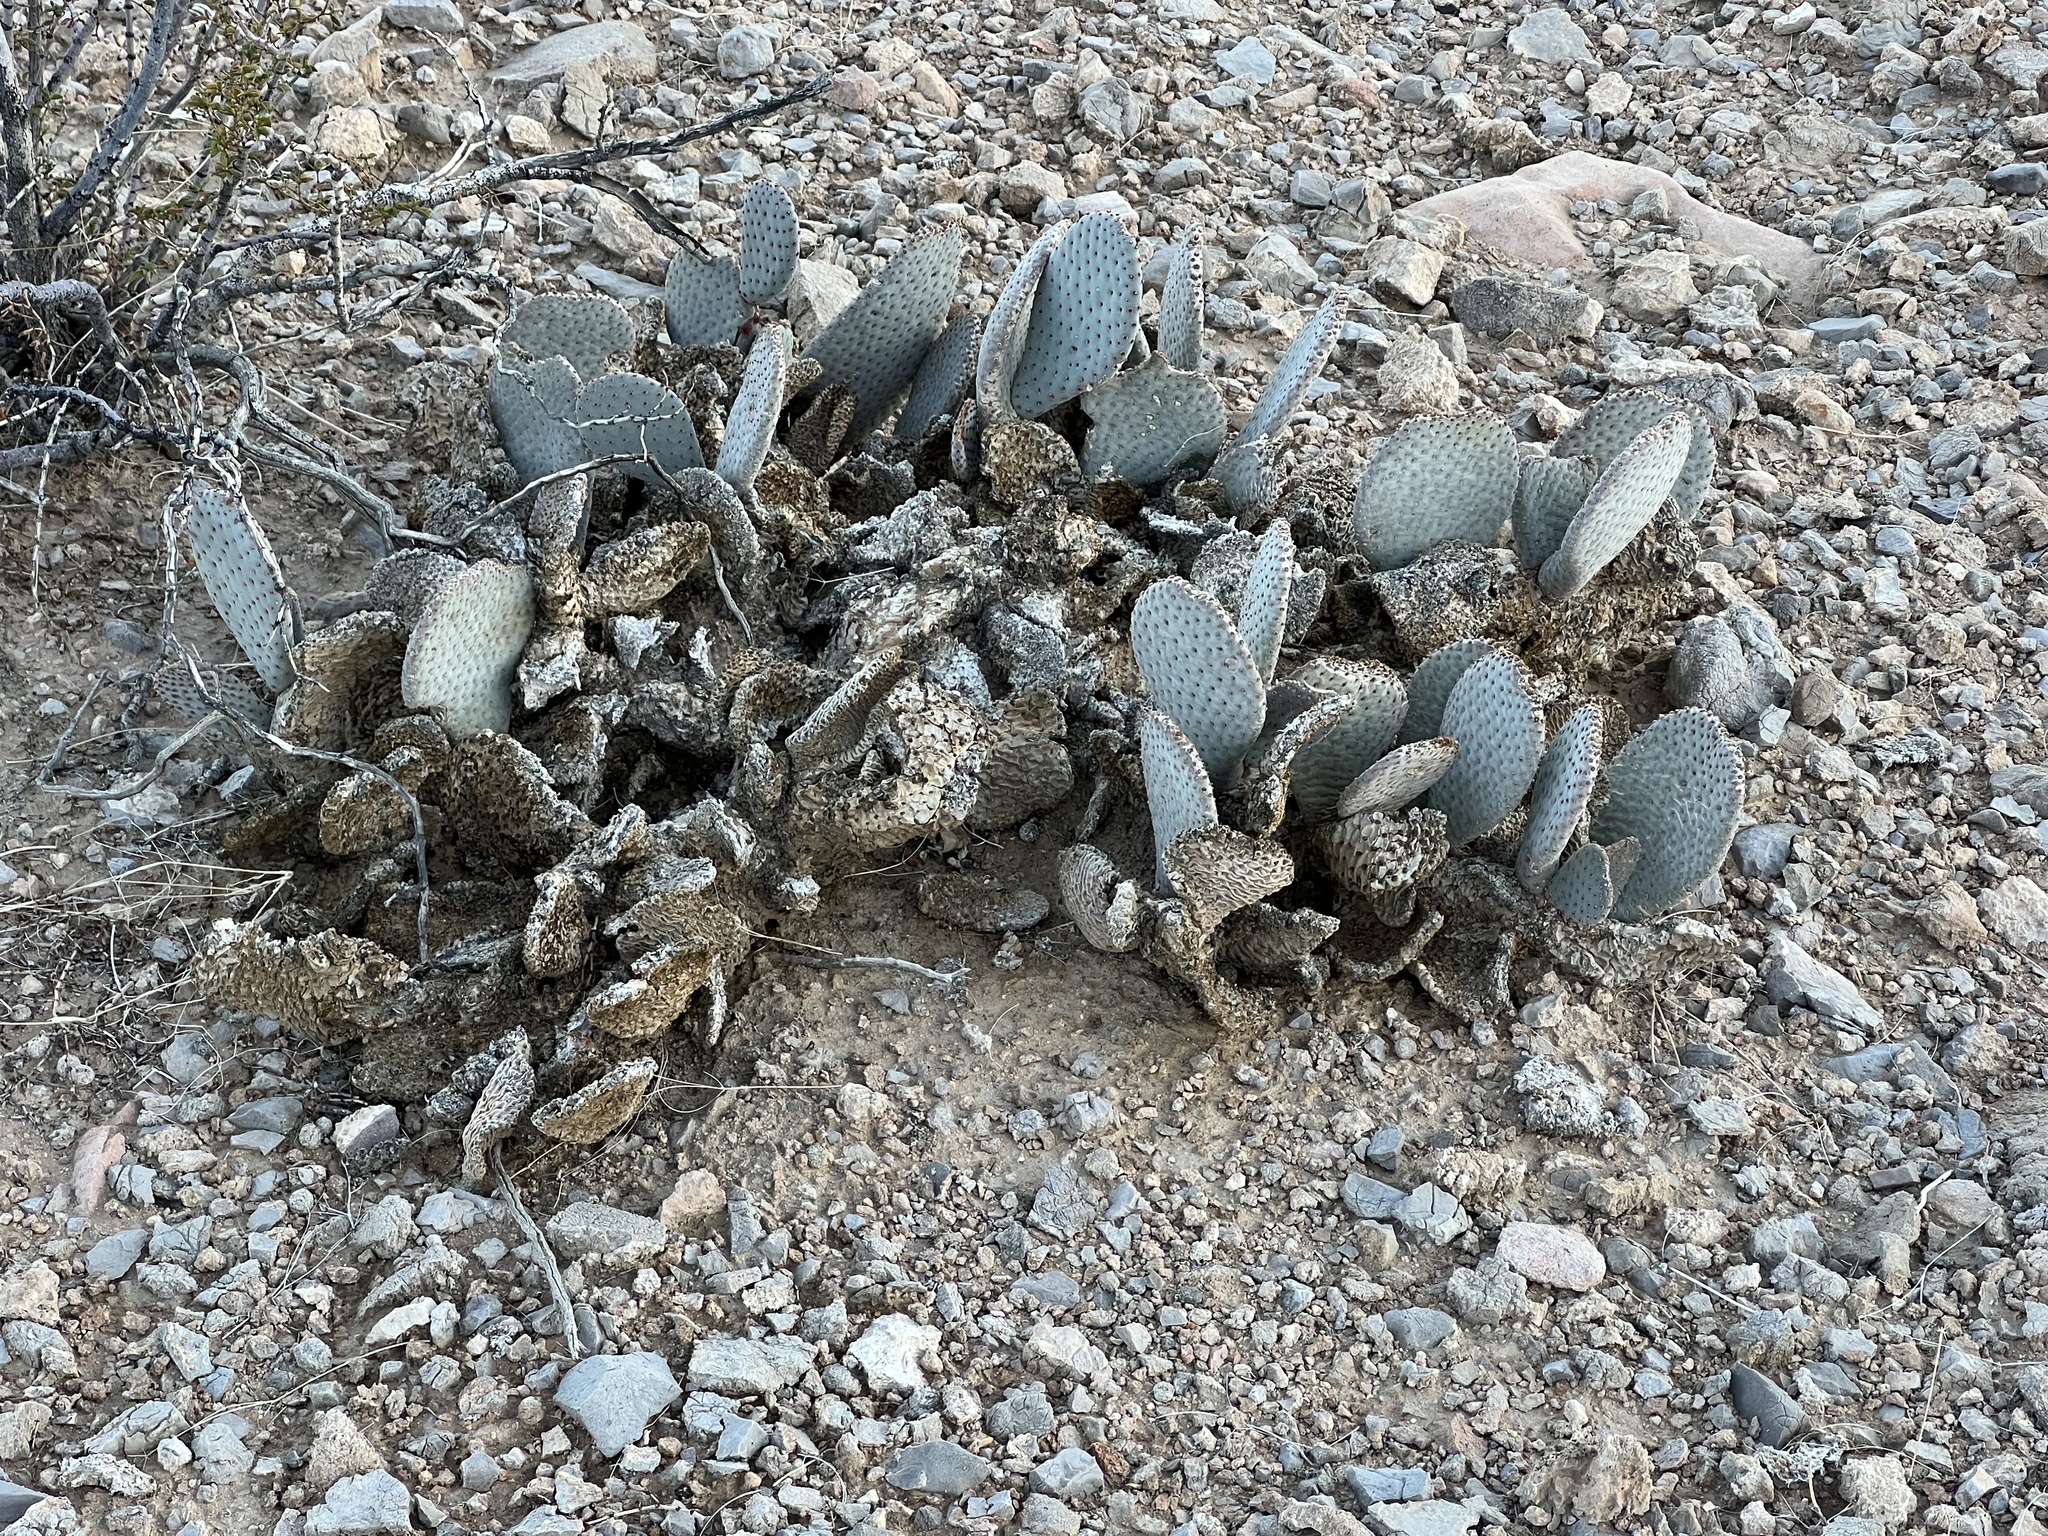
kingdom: Plantae
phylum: Tracheophyta
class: Magnoliopsida
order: Caryophyllales
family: Cactaceae
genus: Opuntia
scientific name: Opuntia basilaris
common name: Beavertail prickly-pear
